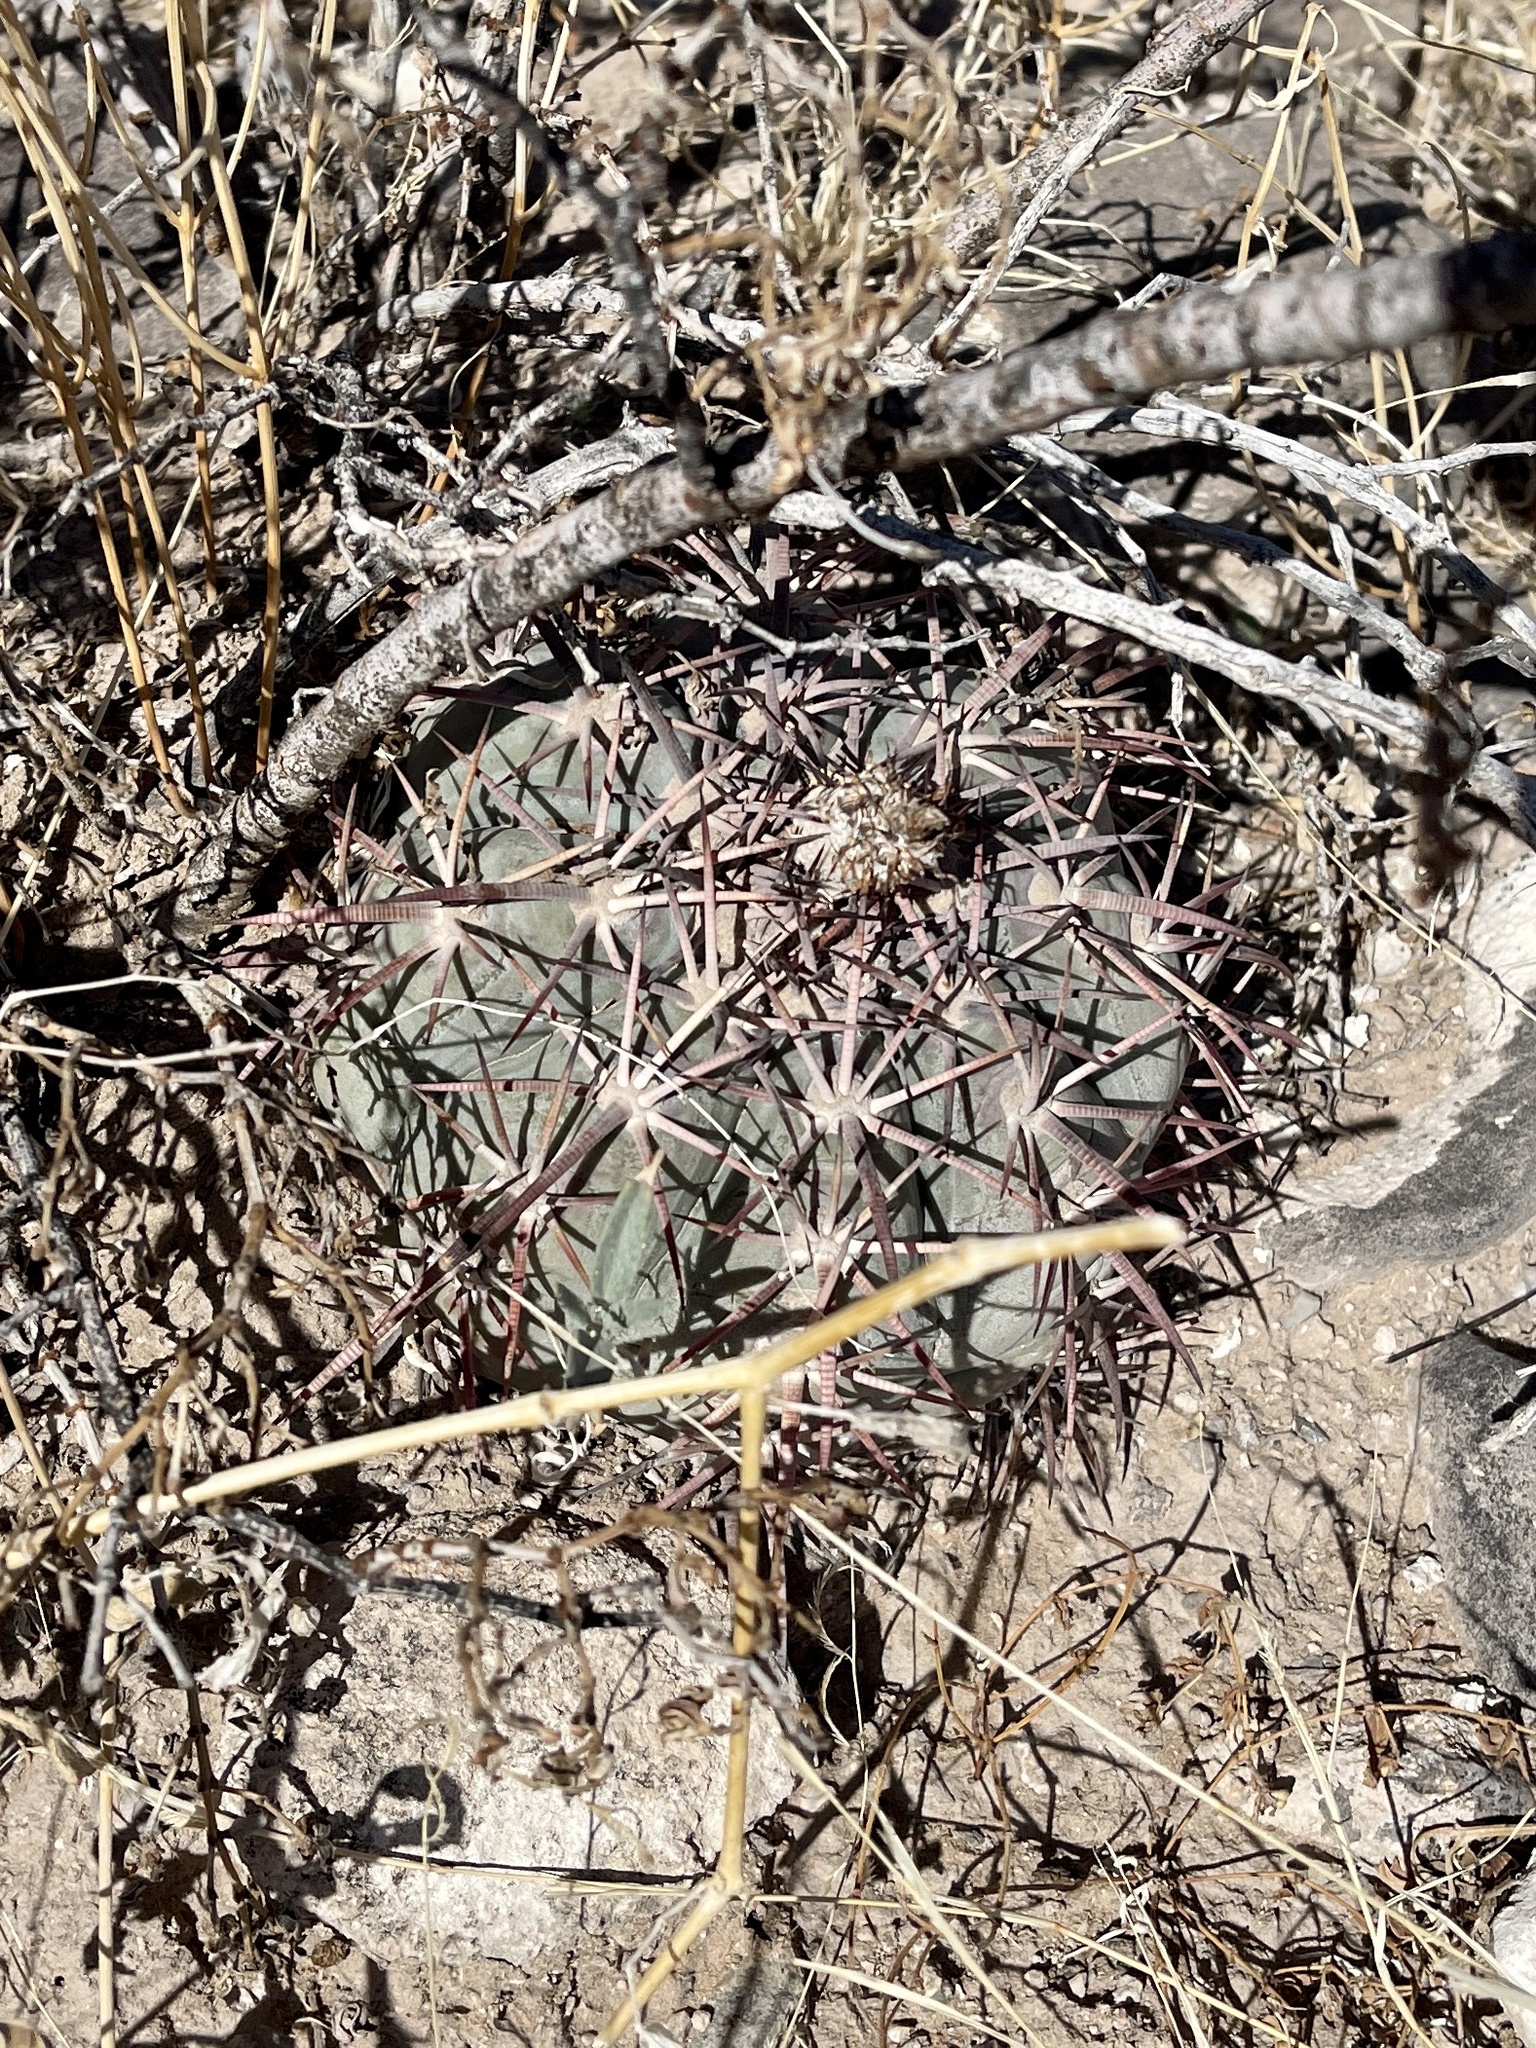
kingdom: Plantae
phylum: Tracheophyta
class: Magnoliopsida
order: Caryophyllales
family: Cactaceae
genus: Echinocactus
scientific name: Echinocactus horizonthalonius
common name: Devilshead
